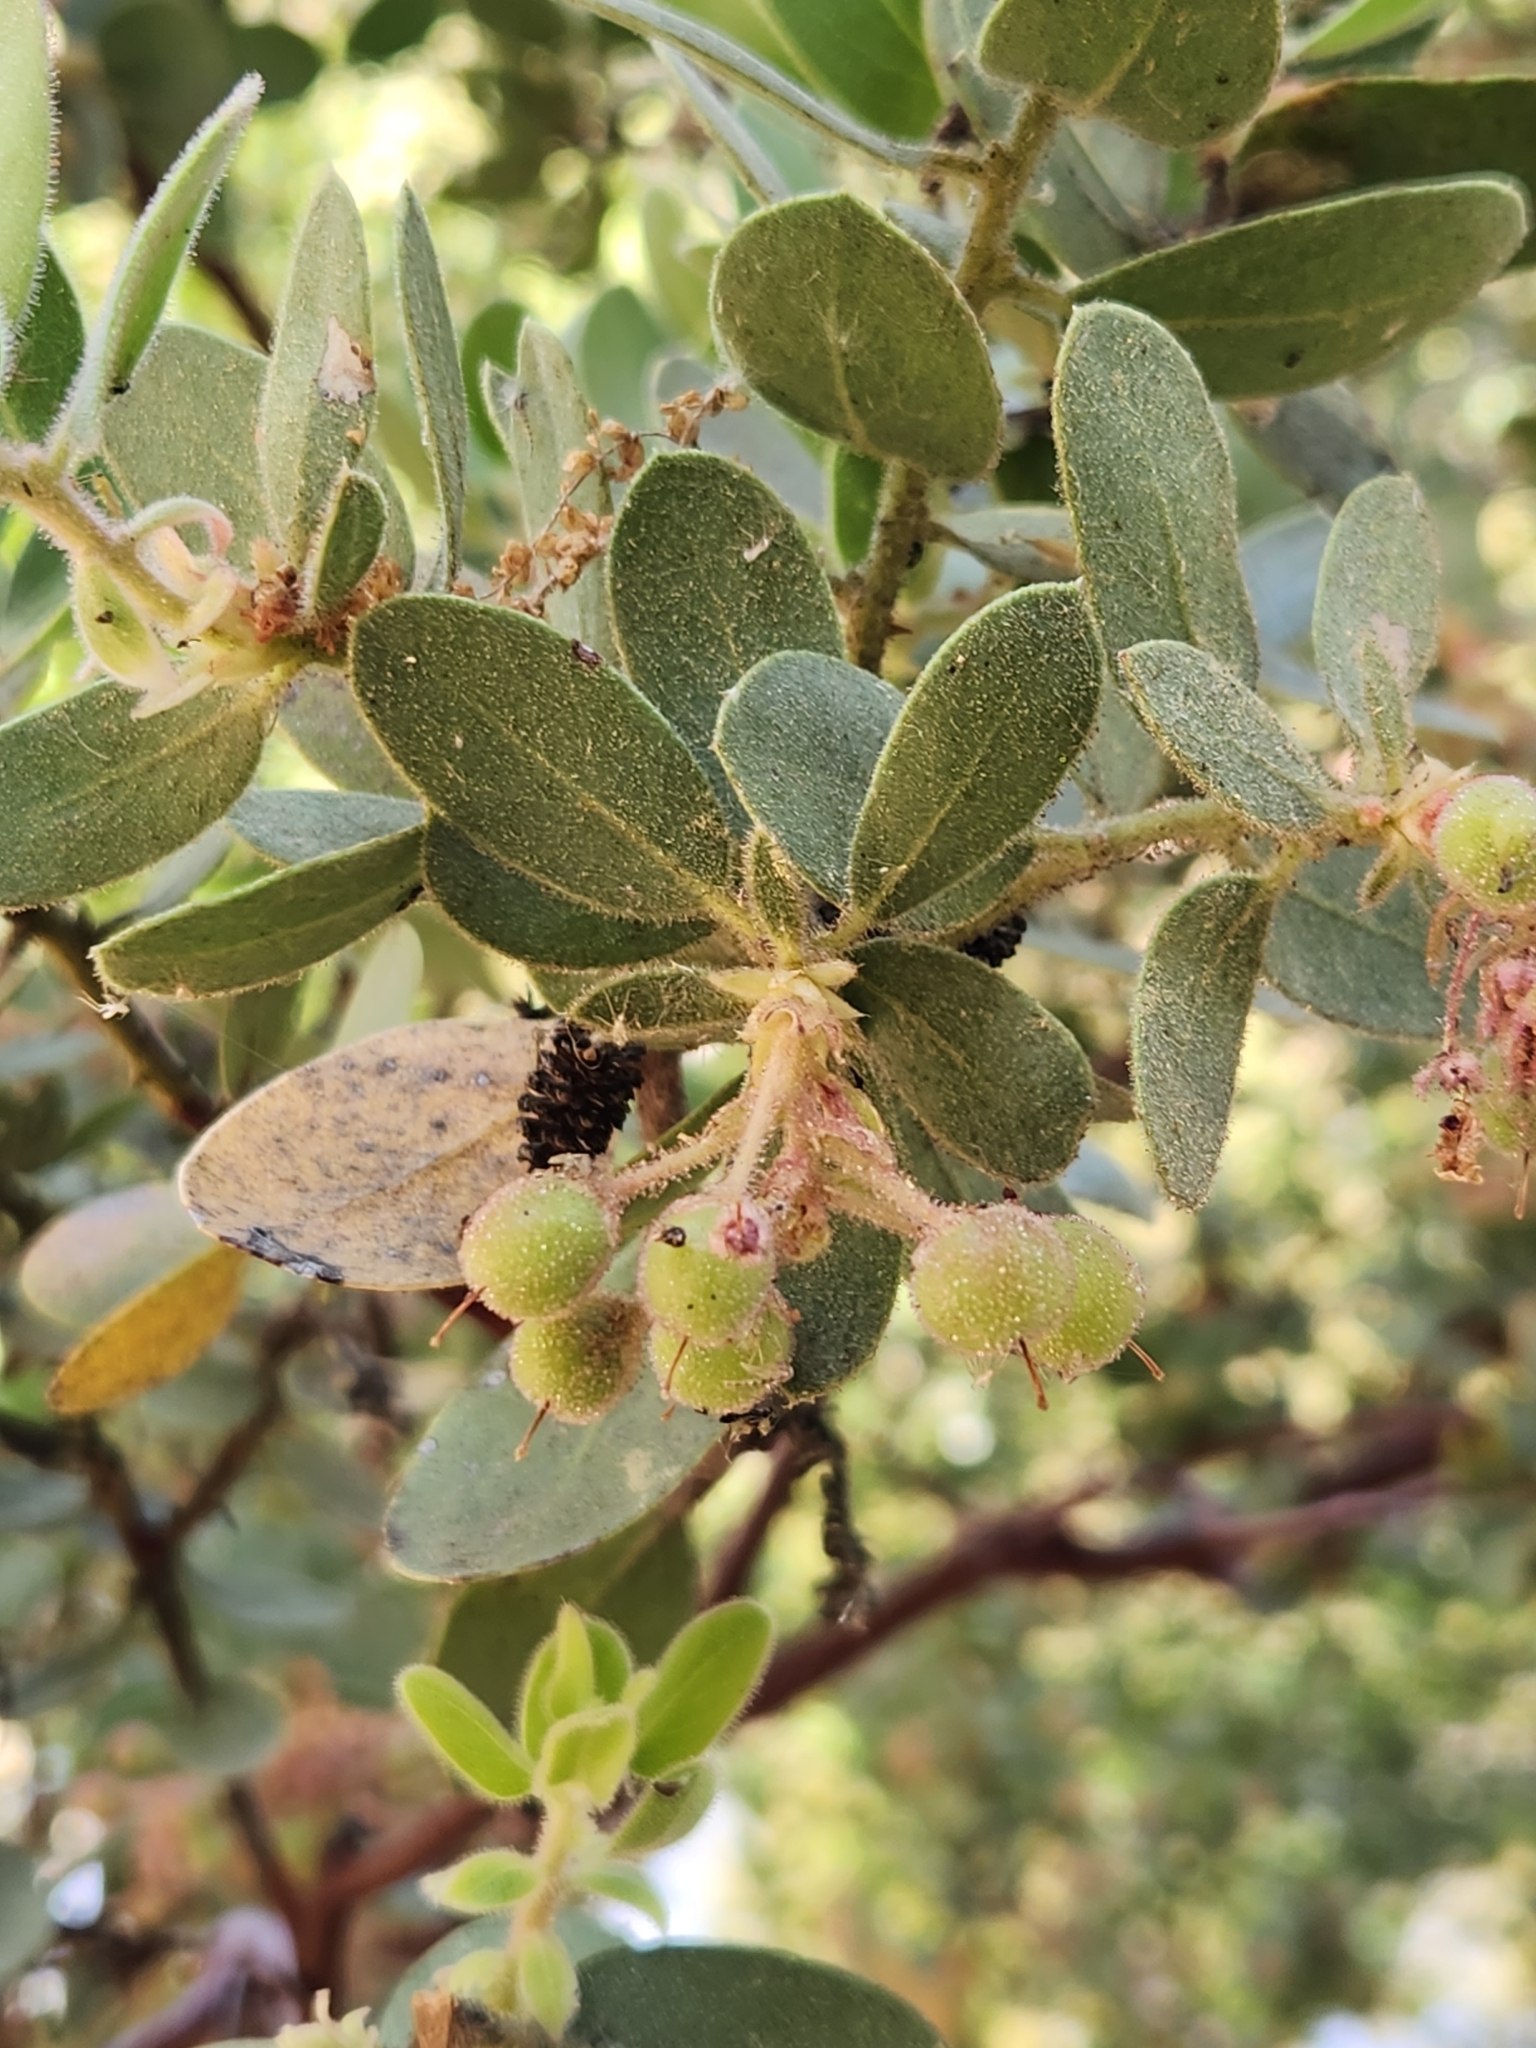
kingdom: Plantae
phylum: Tracheophyta
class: Magnoliopsida
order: Ericales
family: Ericaceae
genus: Arctostaphylos
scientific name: Arctostaphylos pringlei
